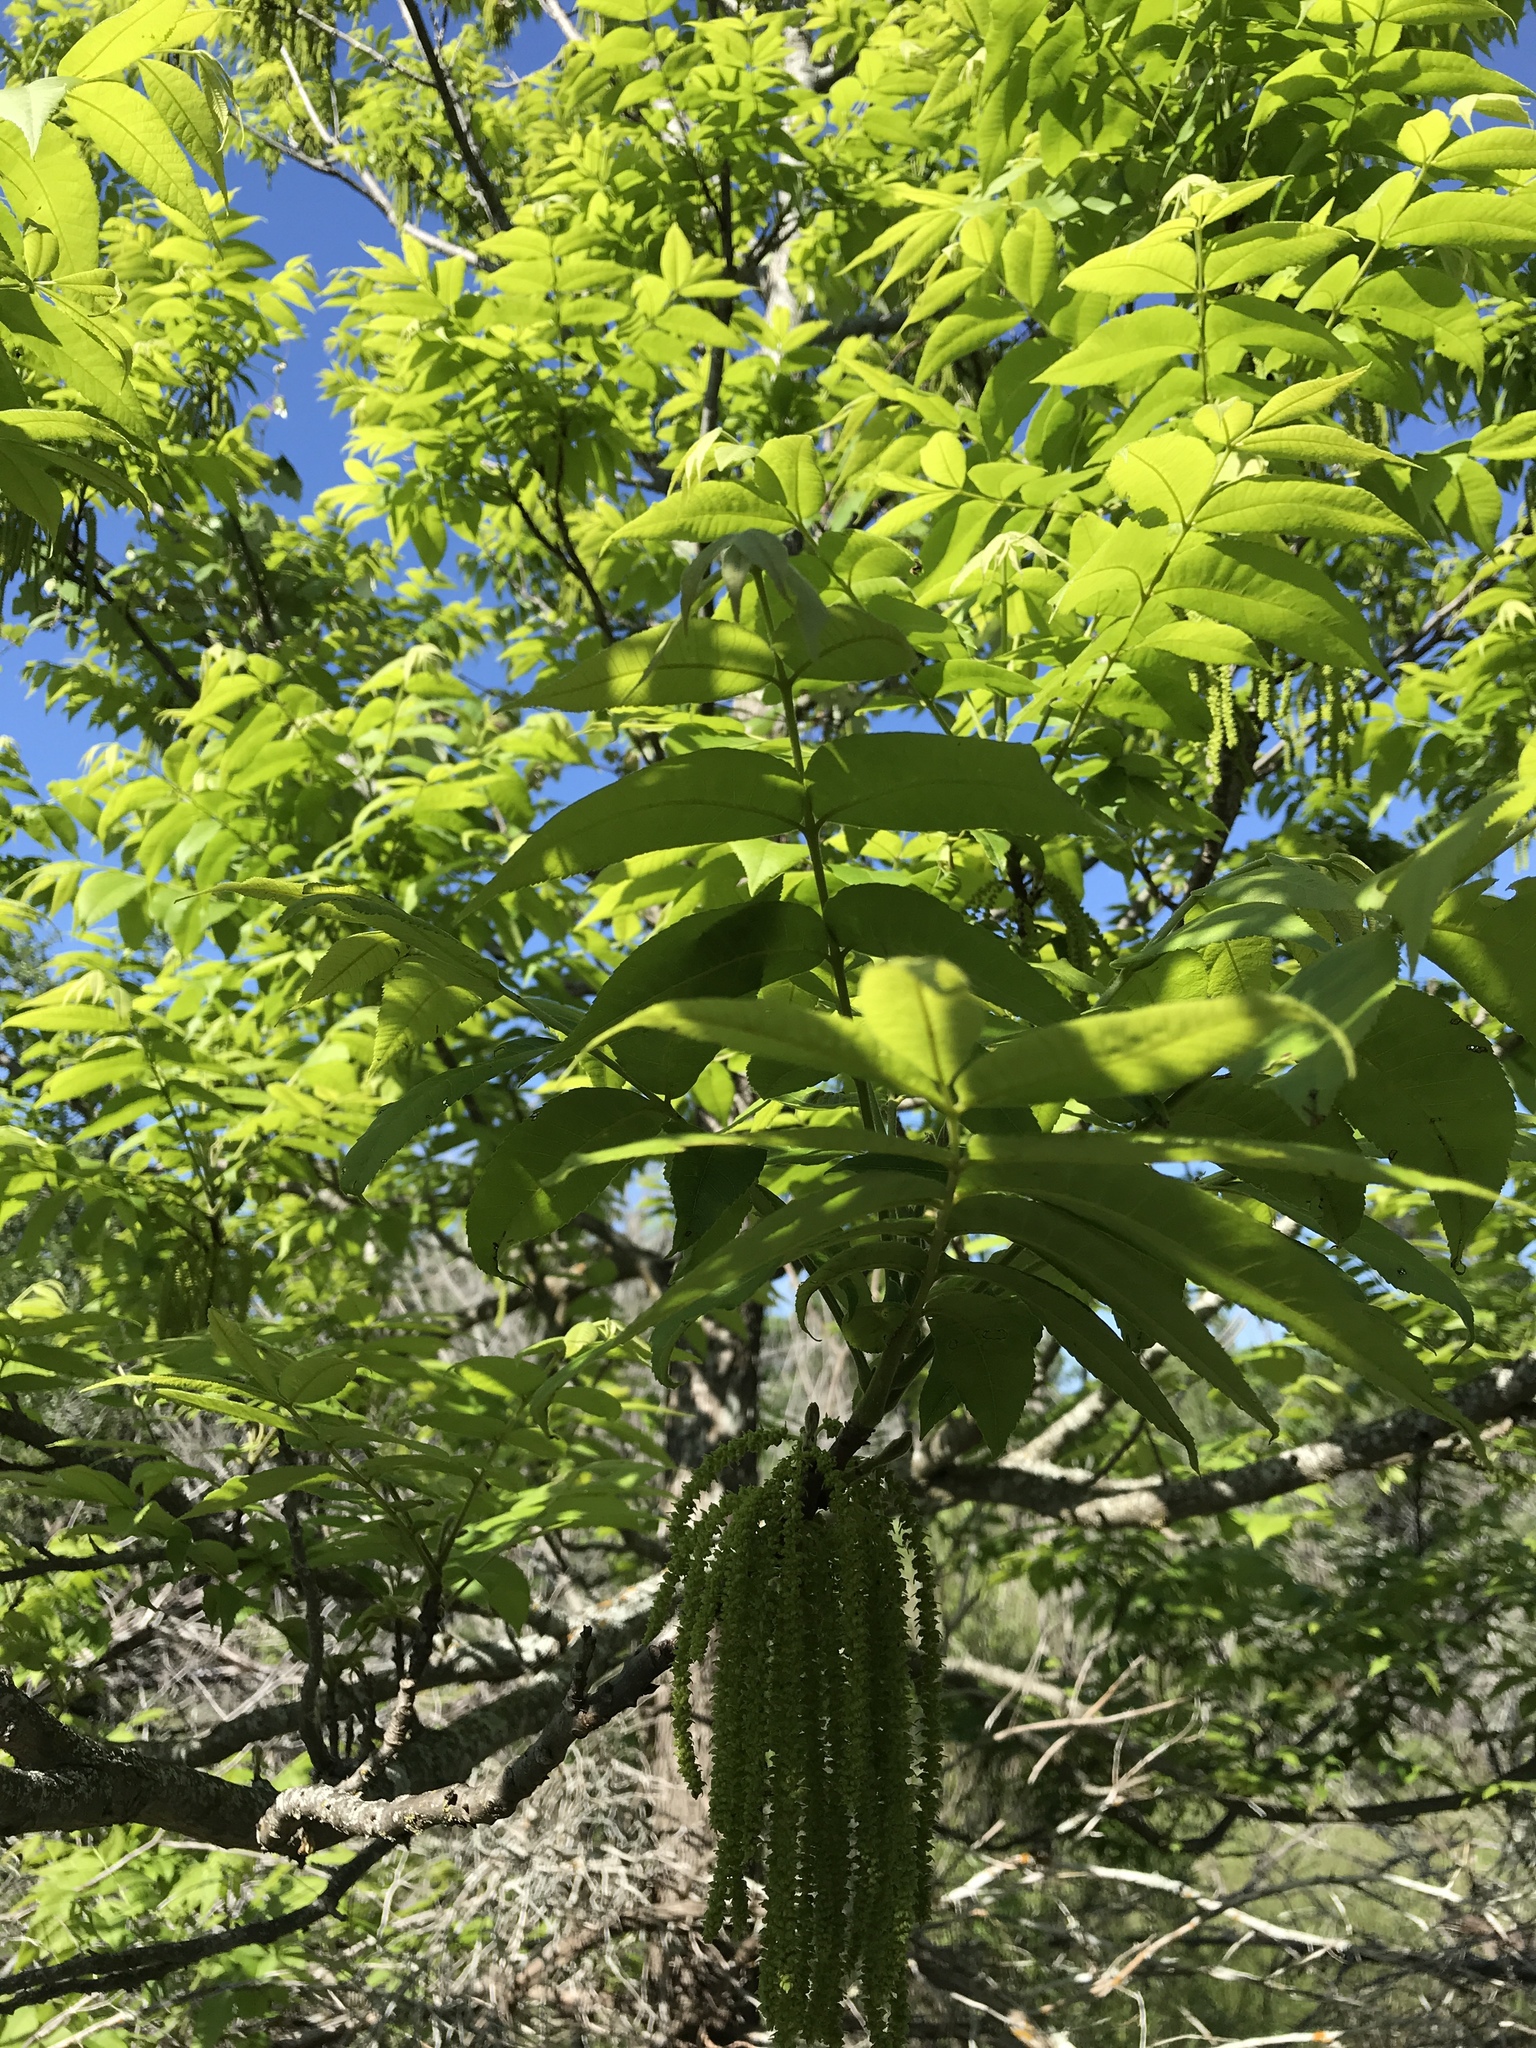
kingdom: Plantae
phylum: Tracheophyta
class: Magnoliopsida
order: Fagales
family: Juglandaceae
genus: Carya
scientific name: Carya illinoinensis
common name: Pecan
